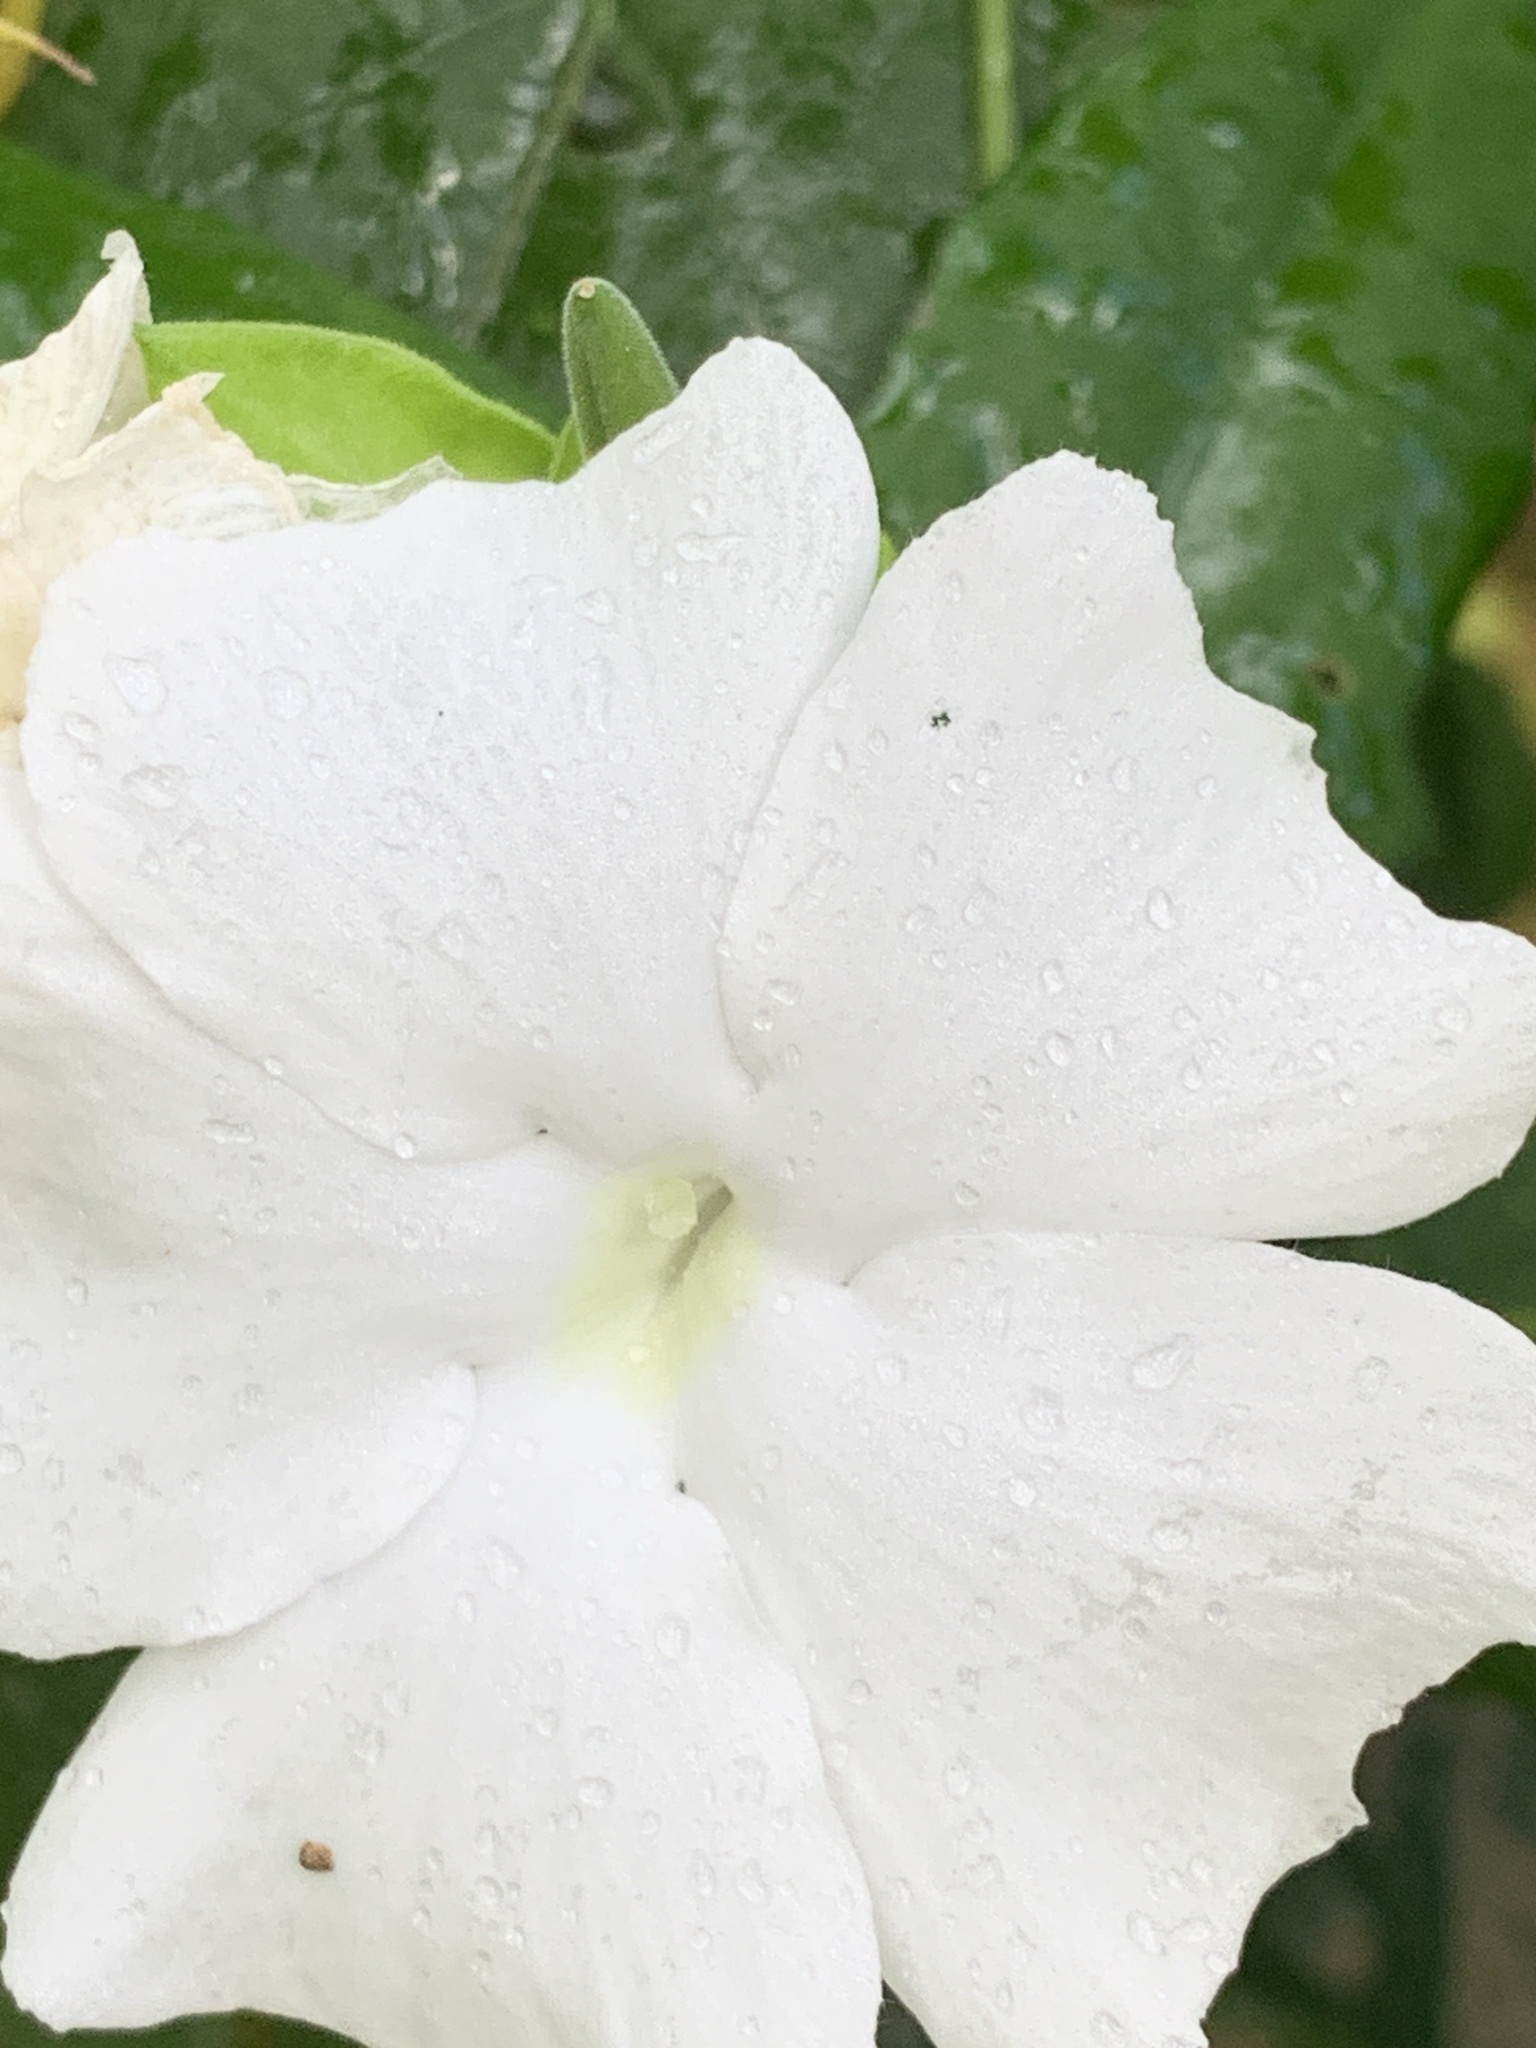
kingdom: Plantae
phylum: Tracheophyta
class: Magnoliopsida
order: Lamiales
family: Acanthaceae
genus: Thunbergia
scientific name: Thunbergia fragrans
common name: Whitelady
